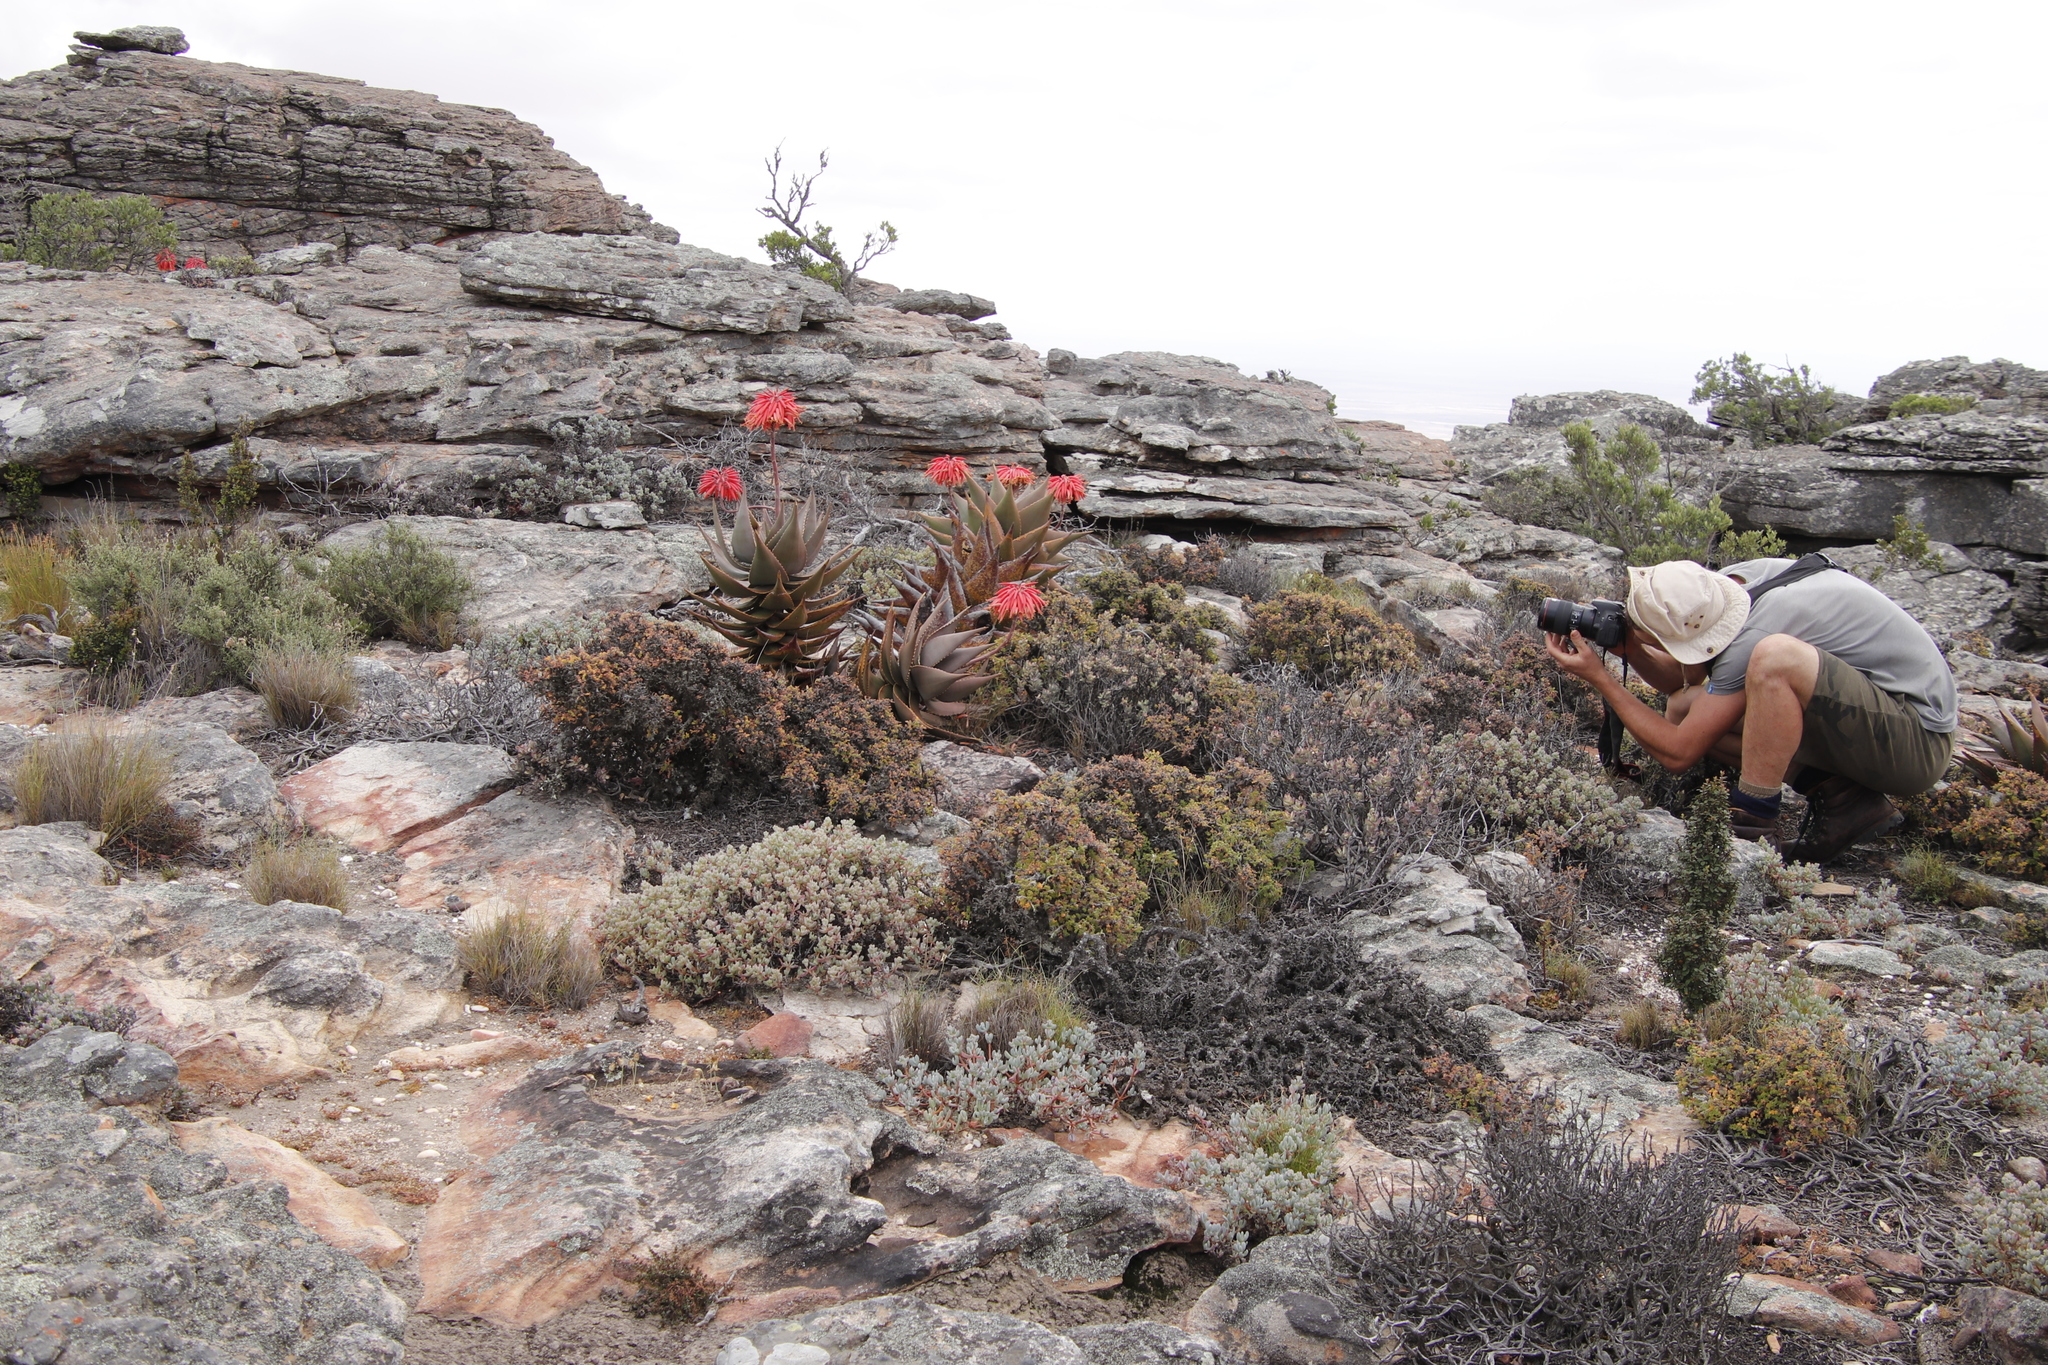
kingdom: Plantae
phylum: Tracheophyta
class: Liliopsida
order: Asparagales
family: Asphodelaceae
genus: Aloe
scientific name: Aloe perfoliata
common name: Mitra aloe
